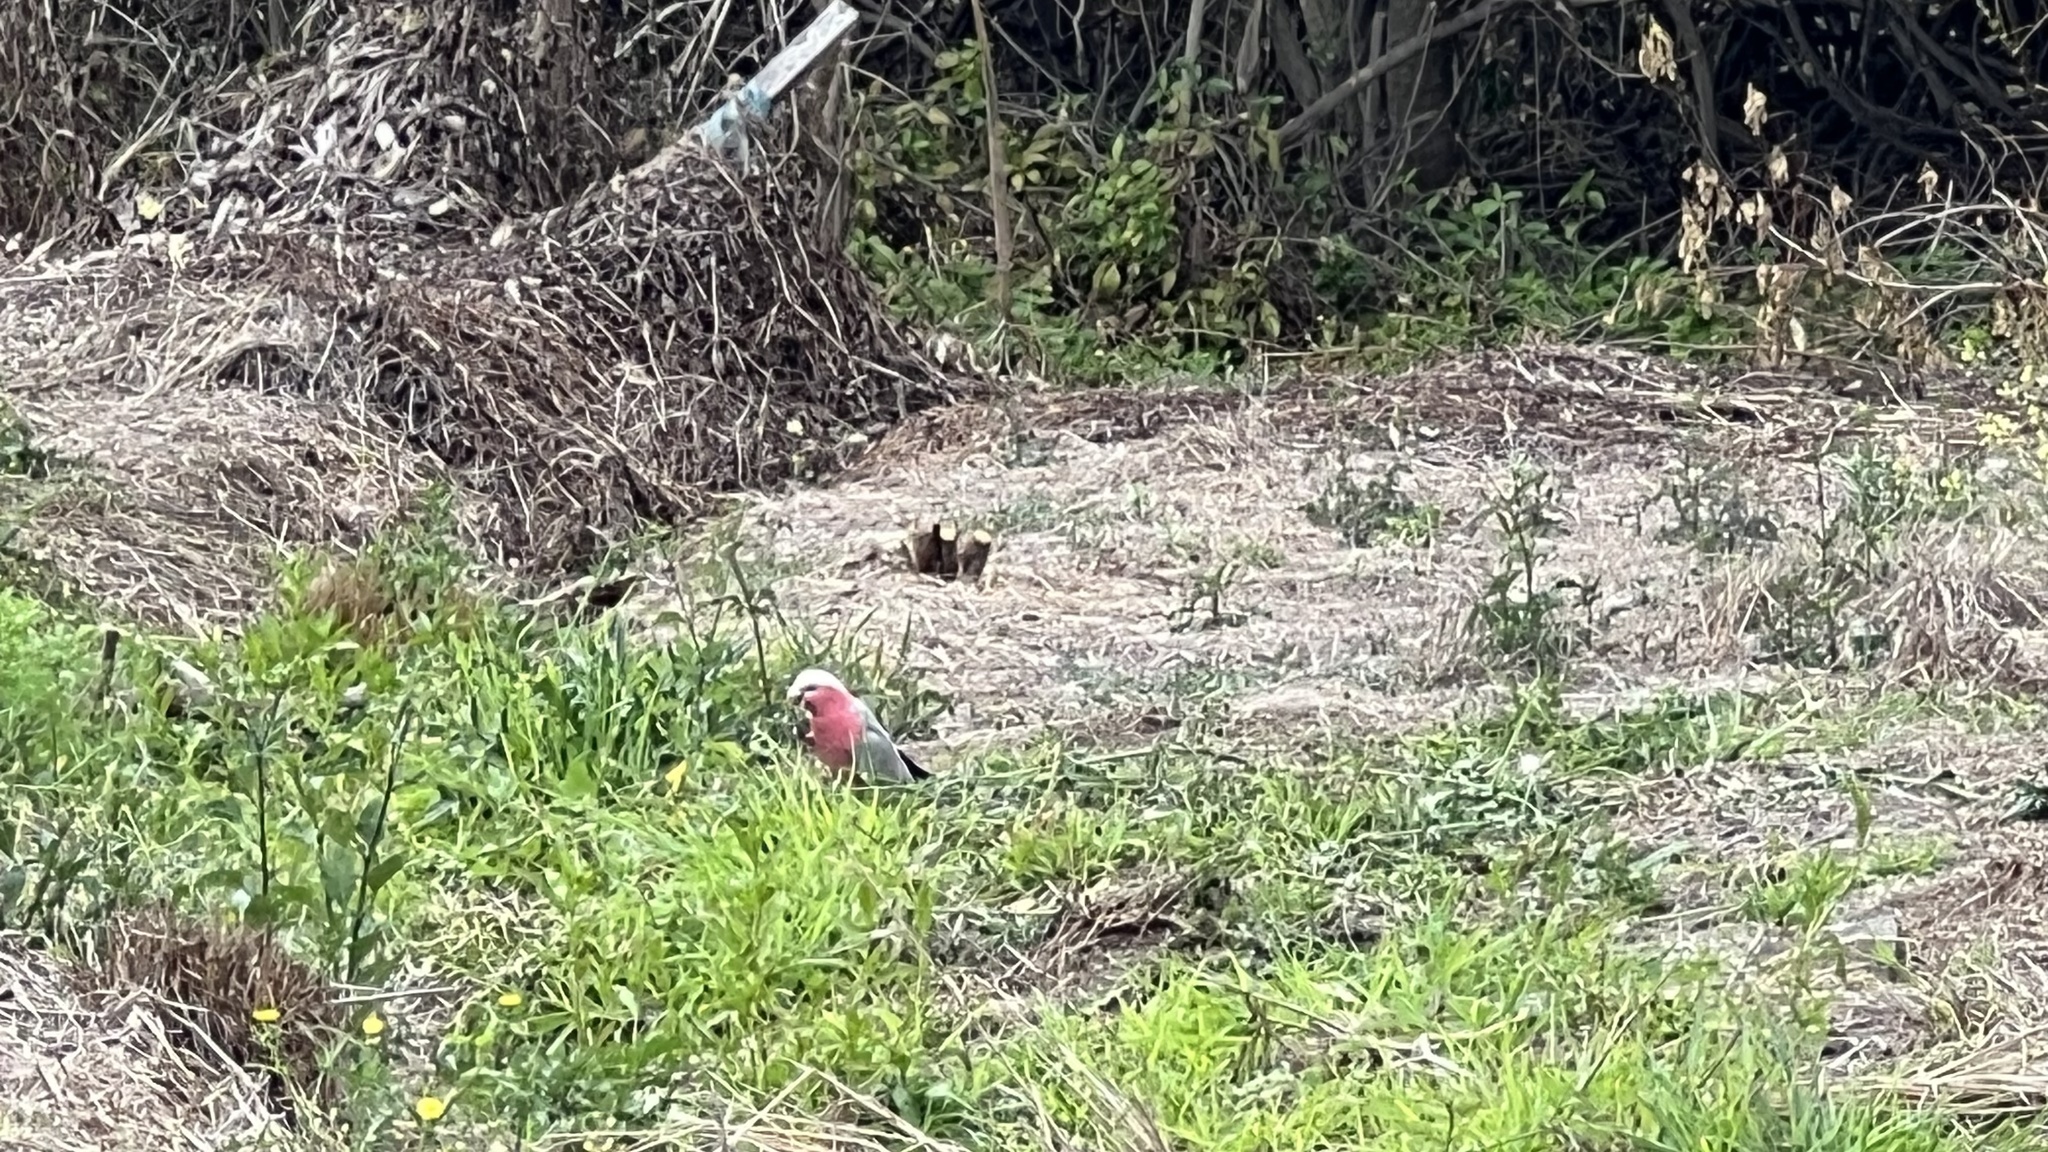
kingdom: Animalia
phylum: Chordata
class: Aves
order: Psittaciformes
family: Psittacidae
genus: Eolophus
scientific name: Eolophus roseicapilla
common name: Galah
